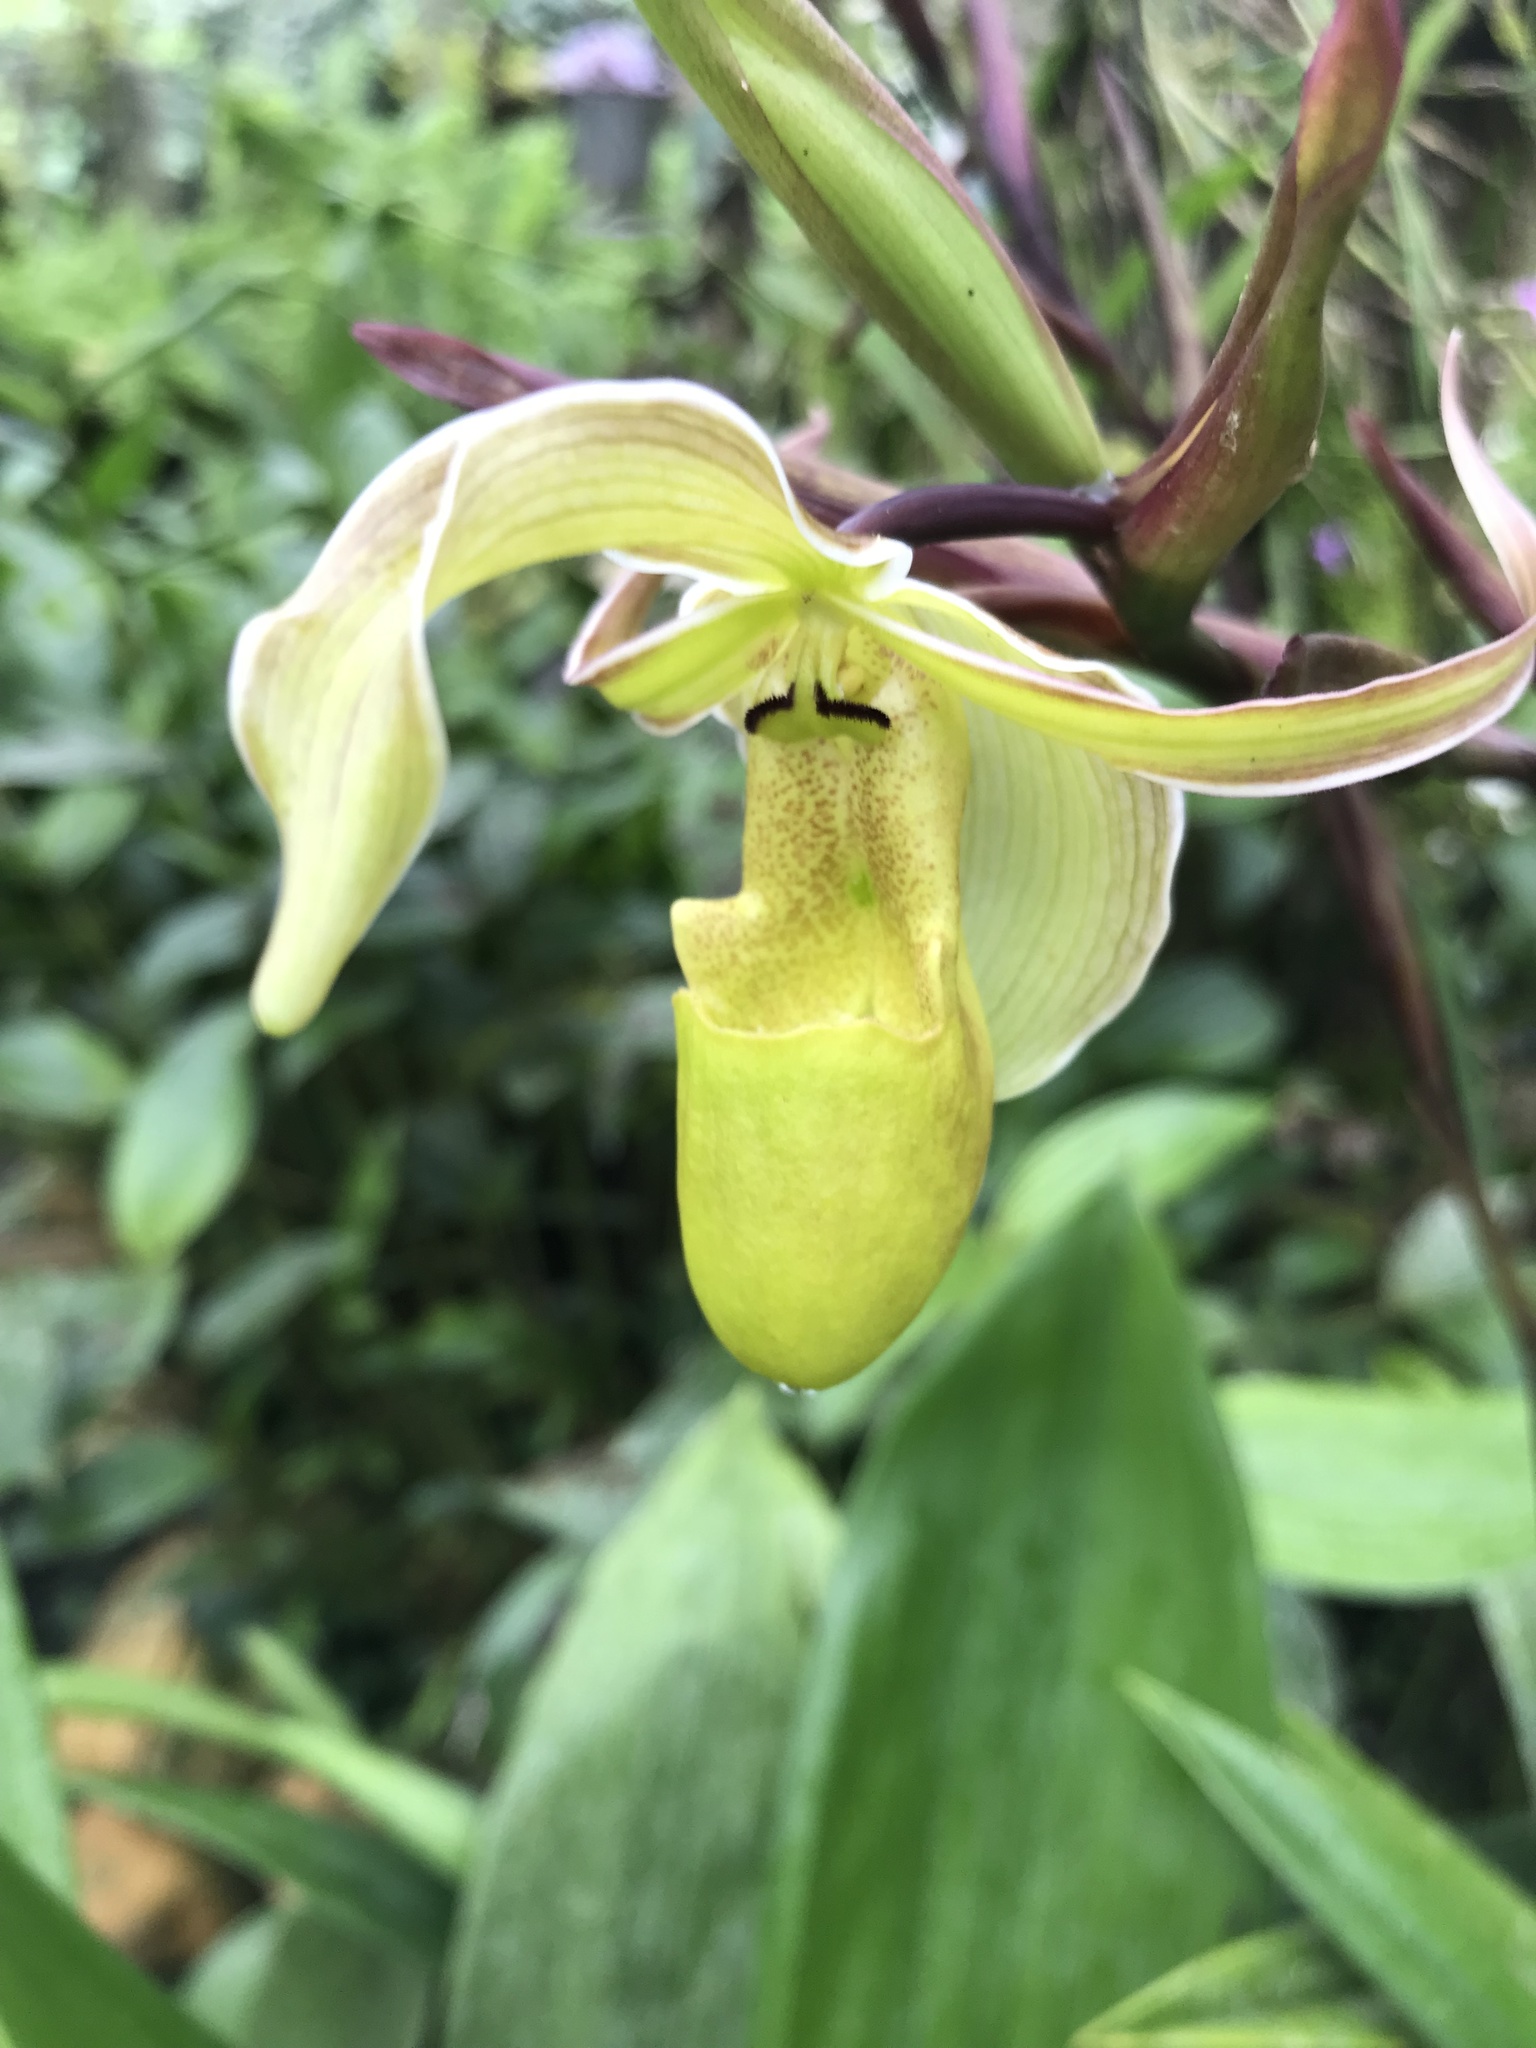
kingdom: Plantae
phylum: Tracheophyta
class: Liliopsida
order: Asparagales
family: Orchidaceae
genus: Phragmipedium
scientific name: Phragmipedium longifolium
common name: Long-leaf phragmipedium
